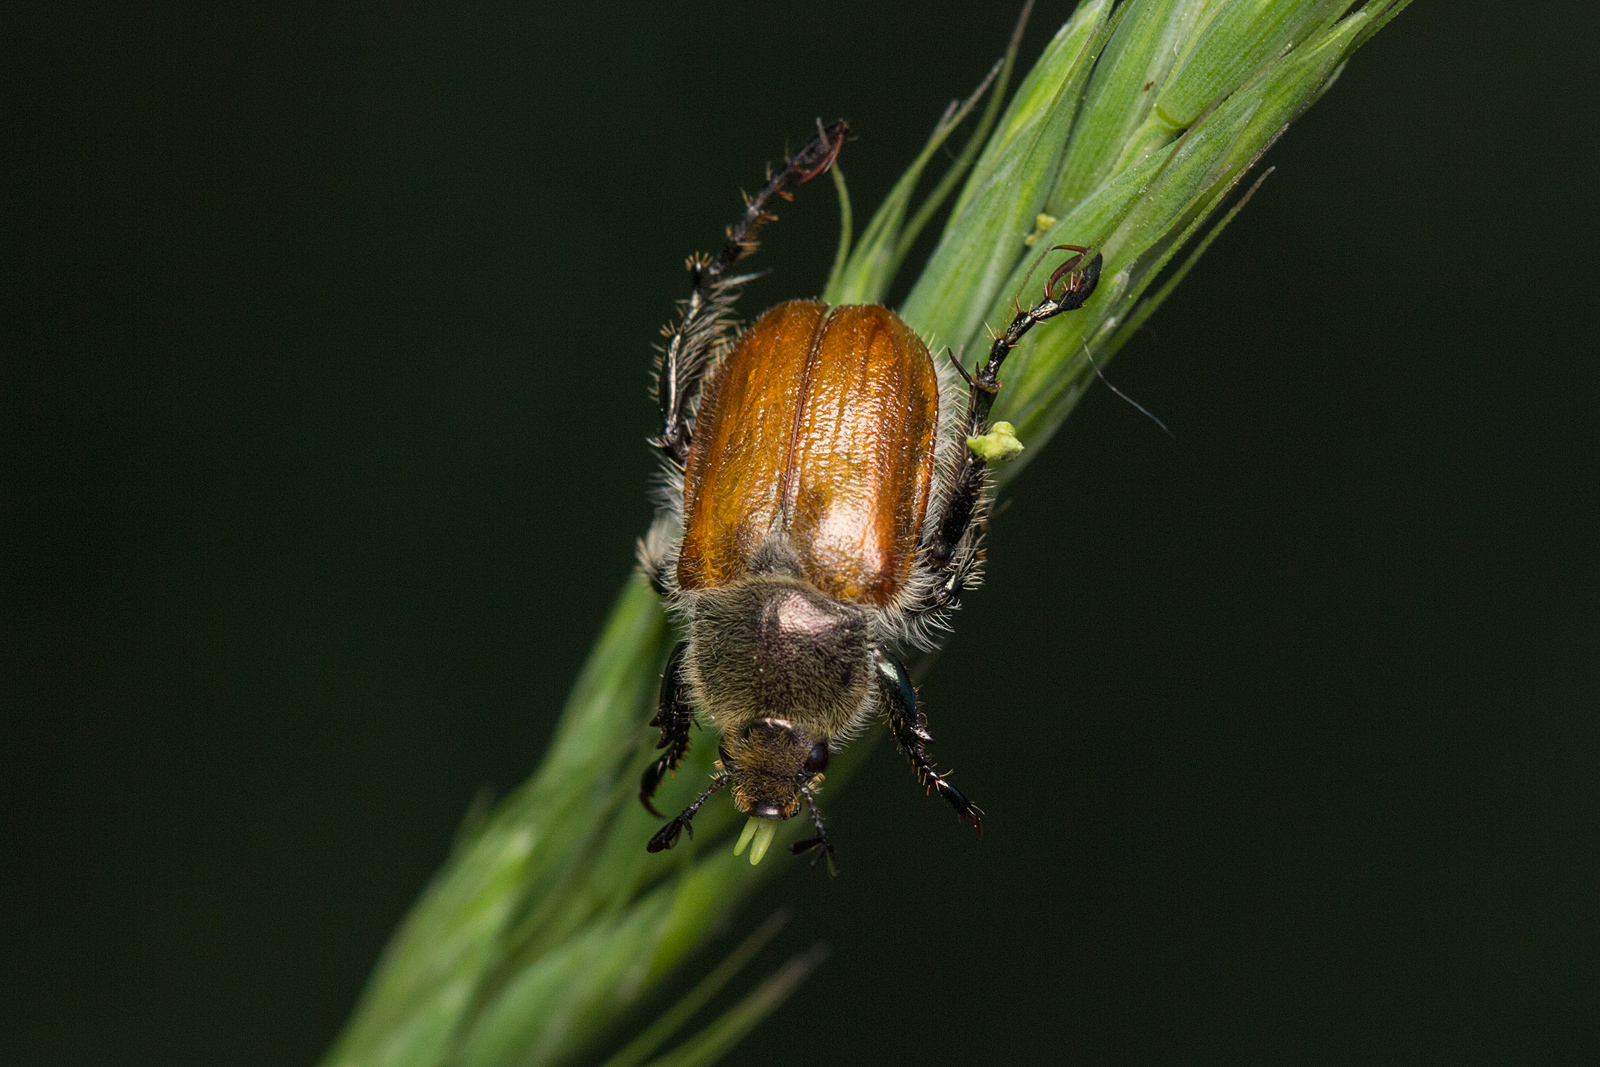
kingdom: Animalia
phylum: Arthropoda
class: Insecta
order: Coleoptera
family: Scarabaeidae
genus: Chaetopteroplia
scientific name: Chaetopteroplia segetum
